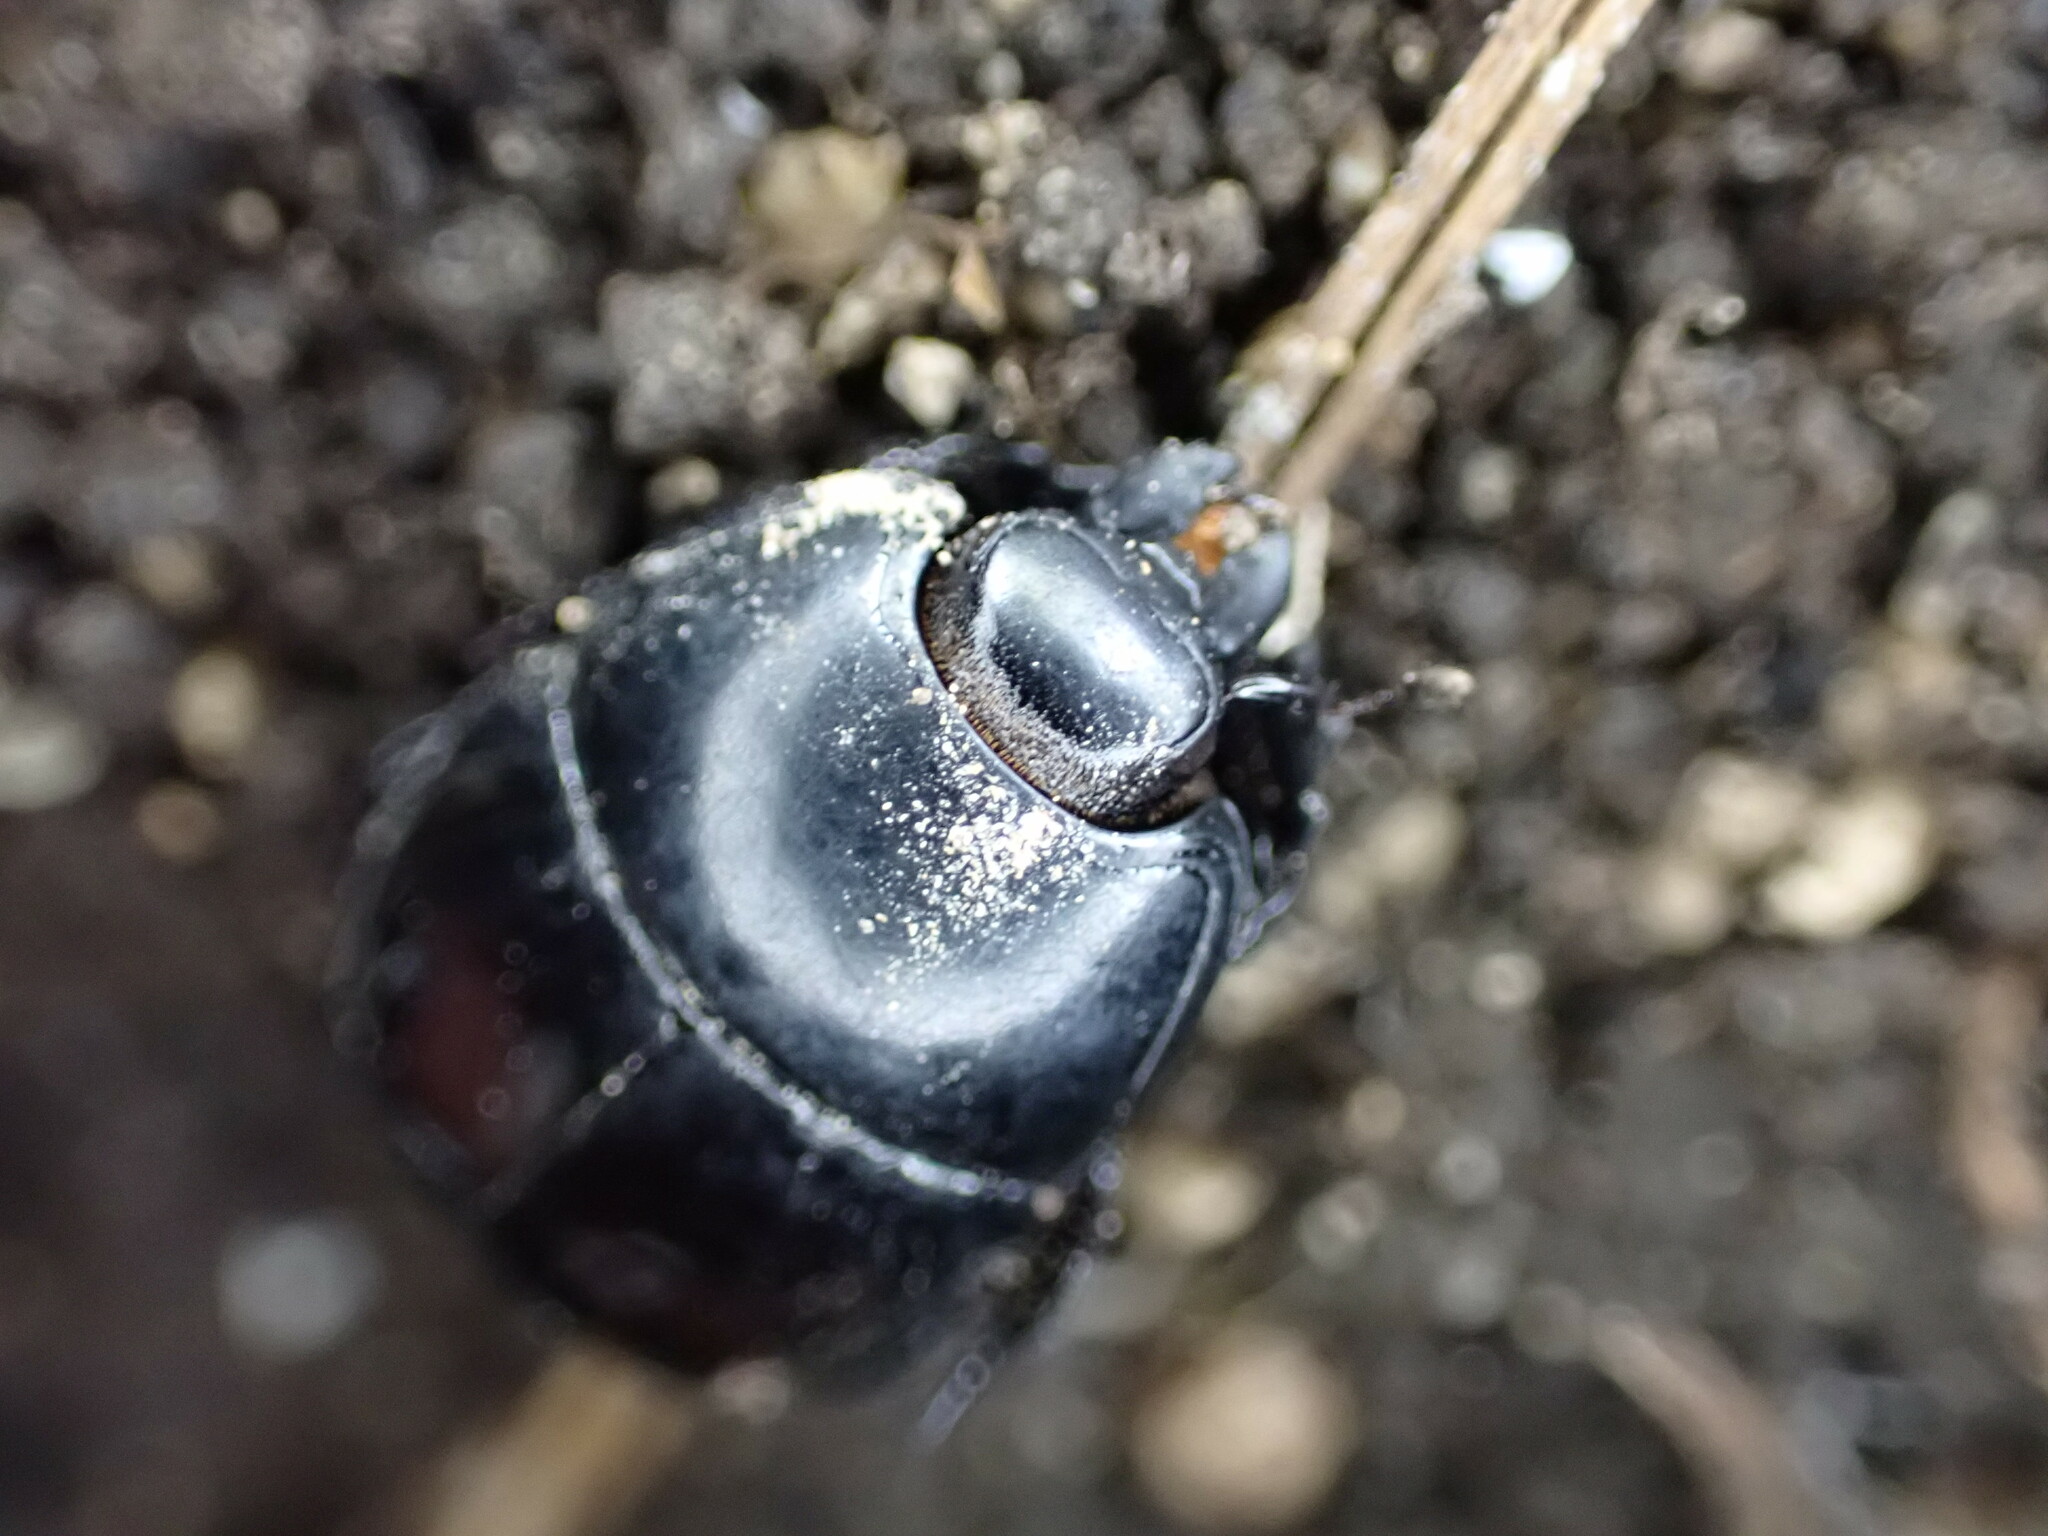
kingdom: Animalia
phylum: Arthropoda
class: Insecta
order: Coleoptera
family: Histeridae
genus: Hister
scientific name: Hister quadrimaculatus
